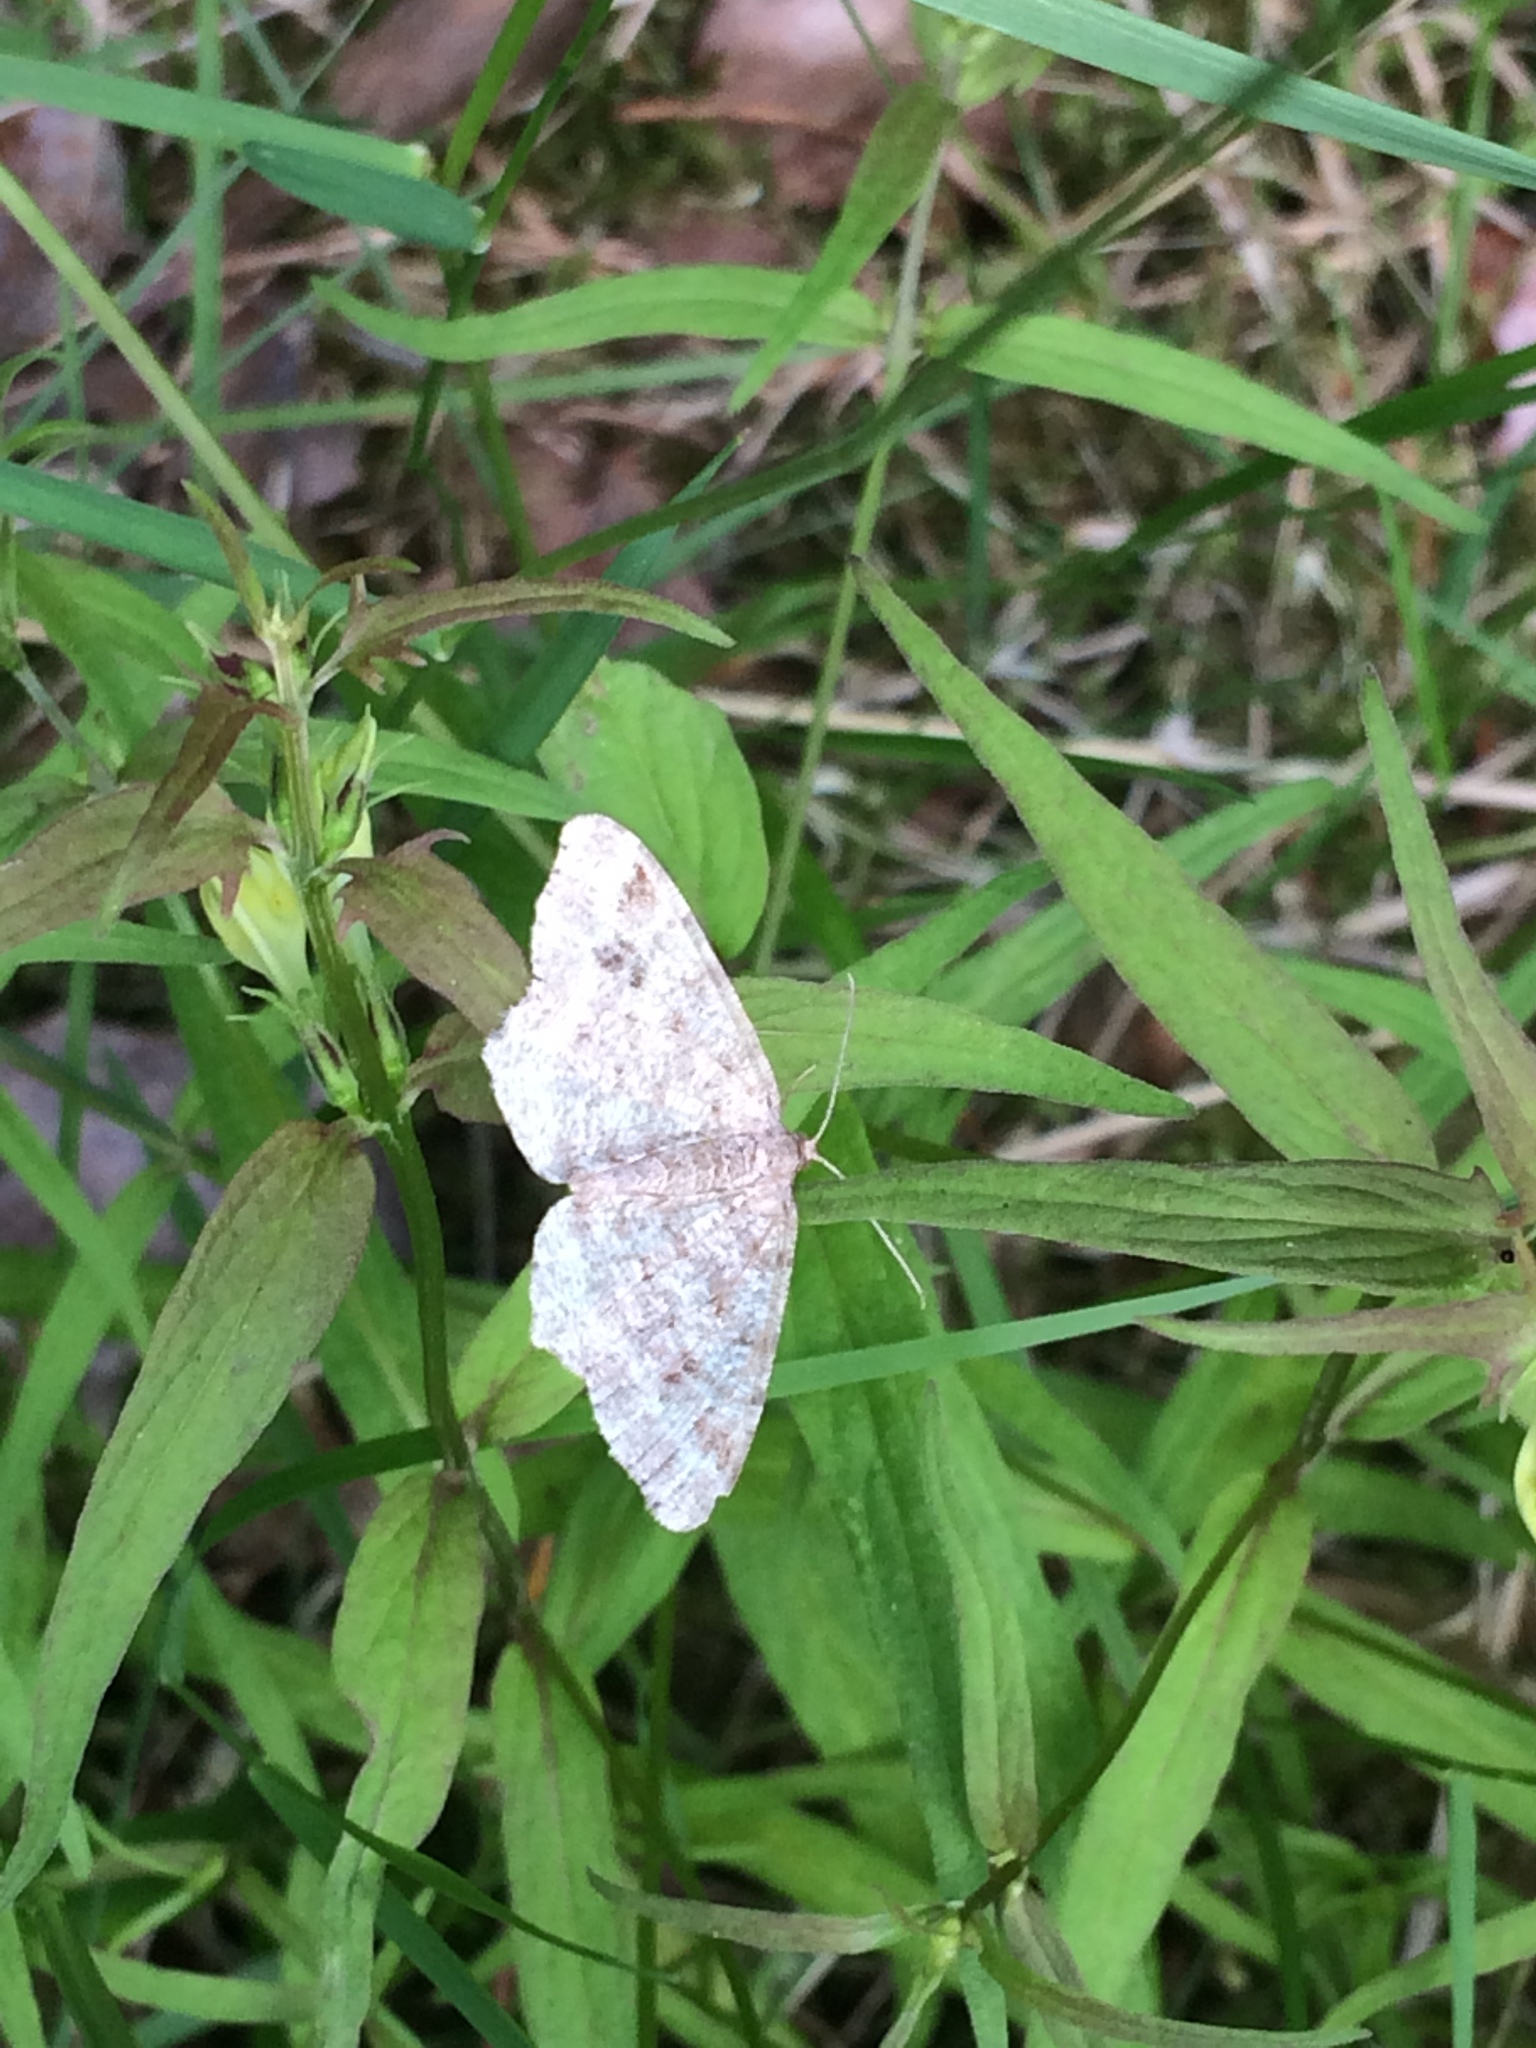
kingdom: Animalia
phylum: Arthropoda
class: Insecta
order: Lepidoptera
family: Geometridae
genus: Macaria
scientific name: Macaria signaria
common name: Dusky peacock
